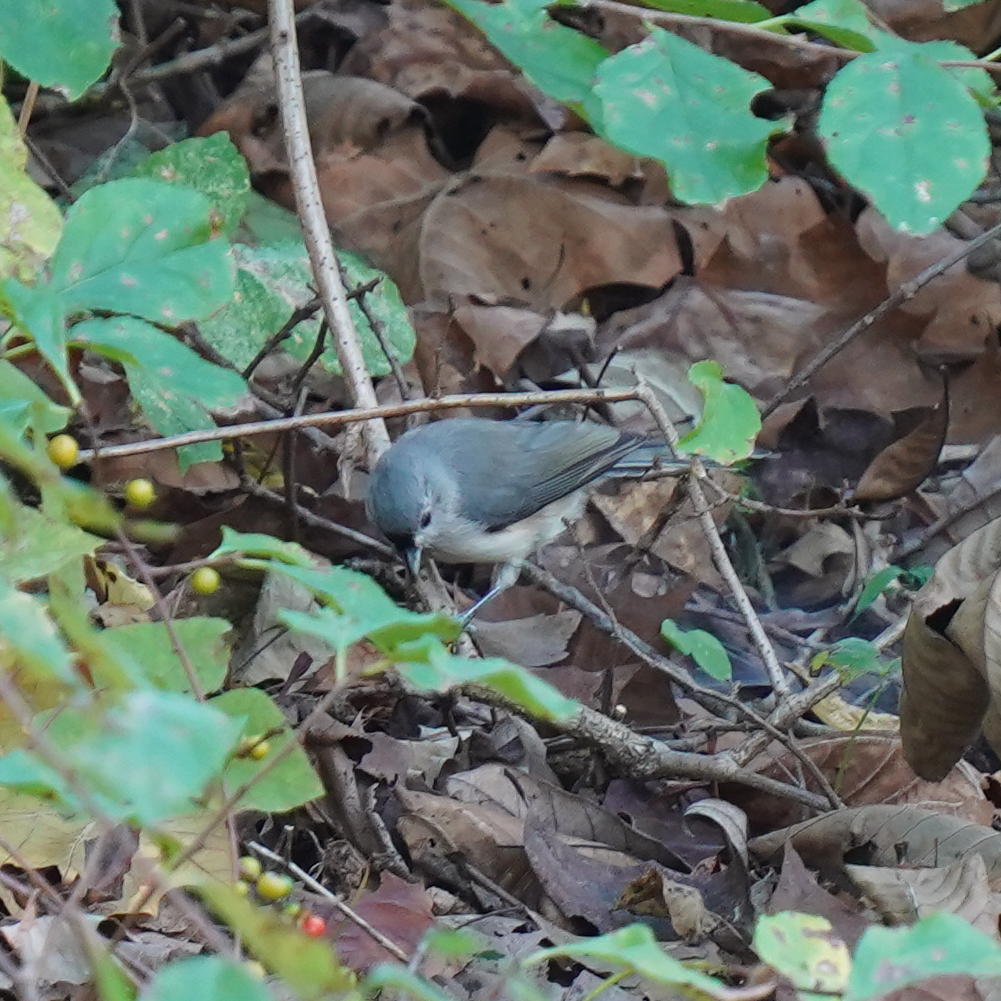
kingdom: Animalia
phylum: Chordata
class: Aves
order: Passeriformes
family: Paridae
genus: Baeolophus
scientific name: Baeolophus bicolor
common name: Tufted titmouse
